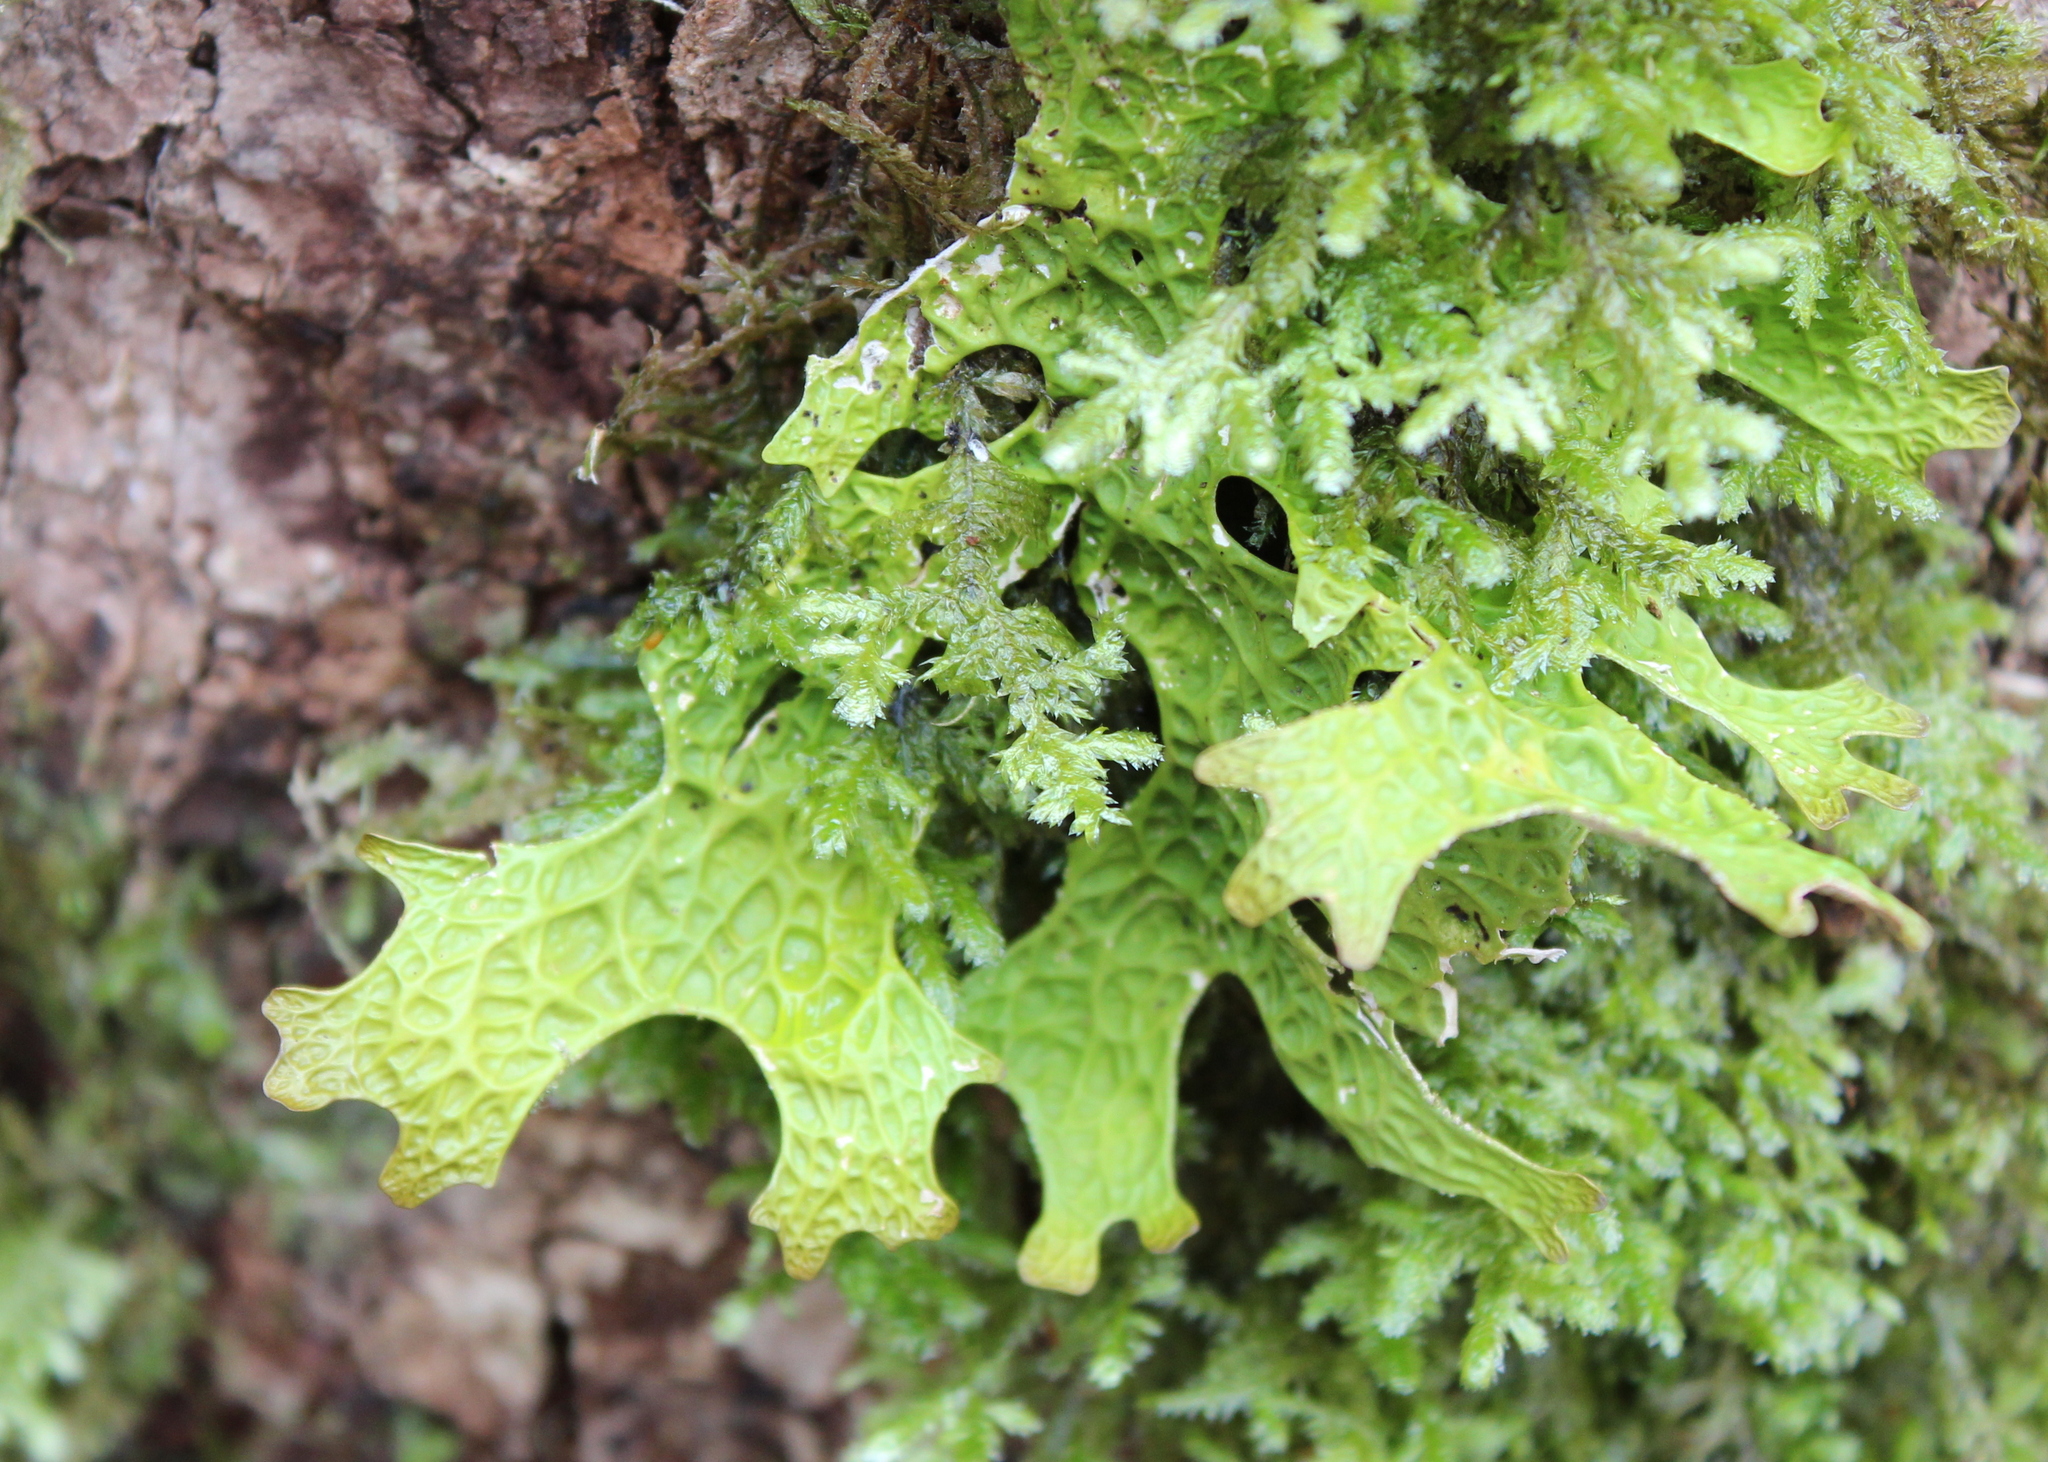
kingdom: Fungi
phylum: Ascomycota
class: Lecanoromycetes
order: Peltigerales
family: Lobariaceae
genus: Lobaria
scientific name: Lobaria pulmonaria
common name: Lungwort
